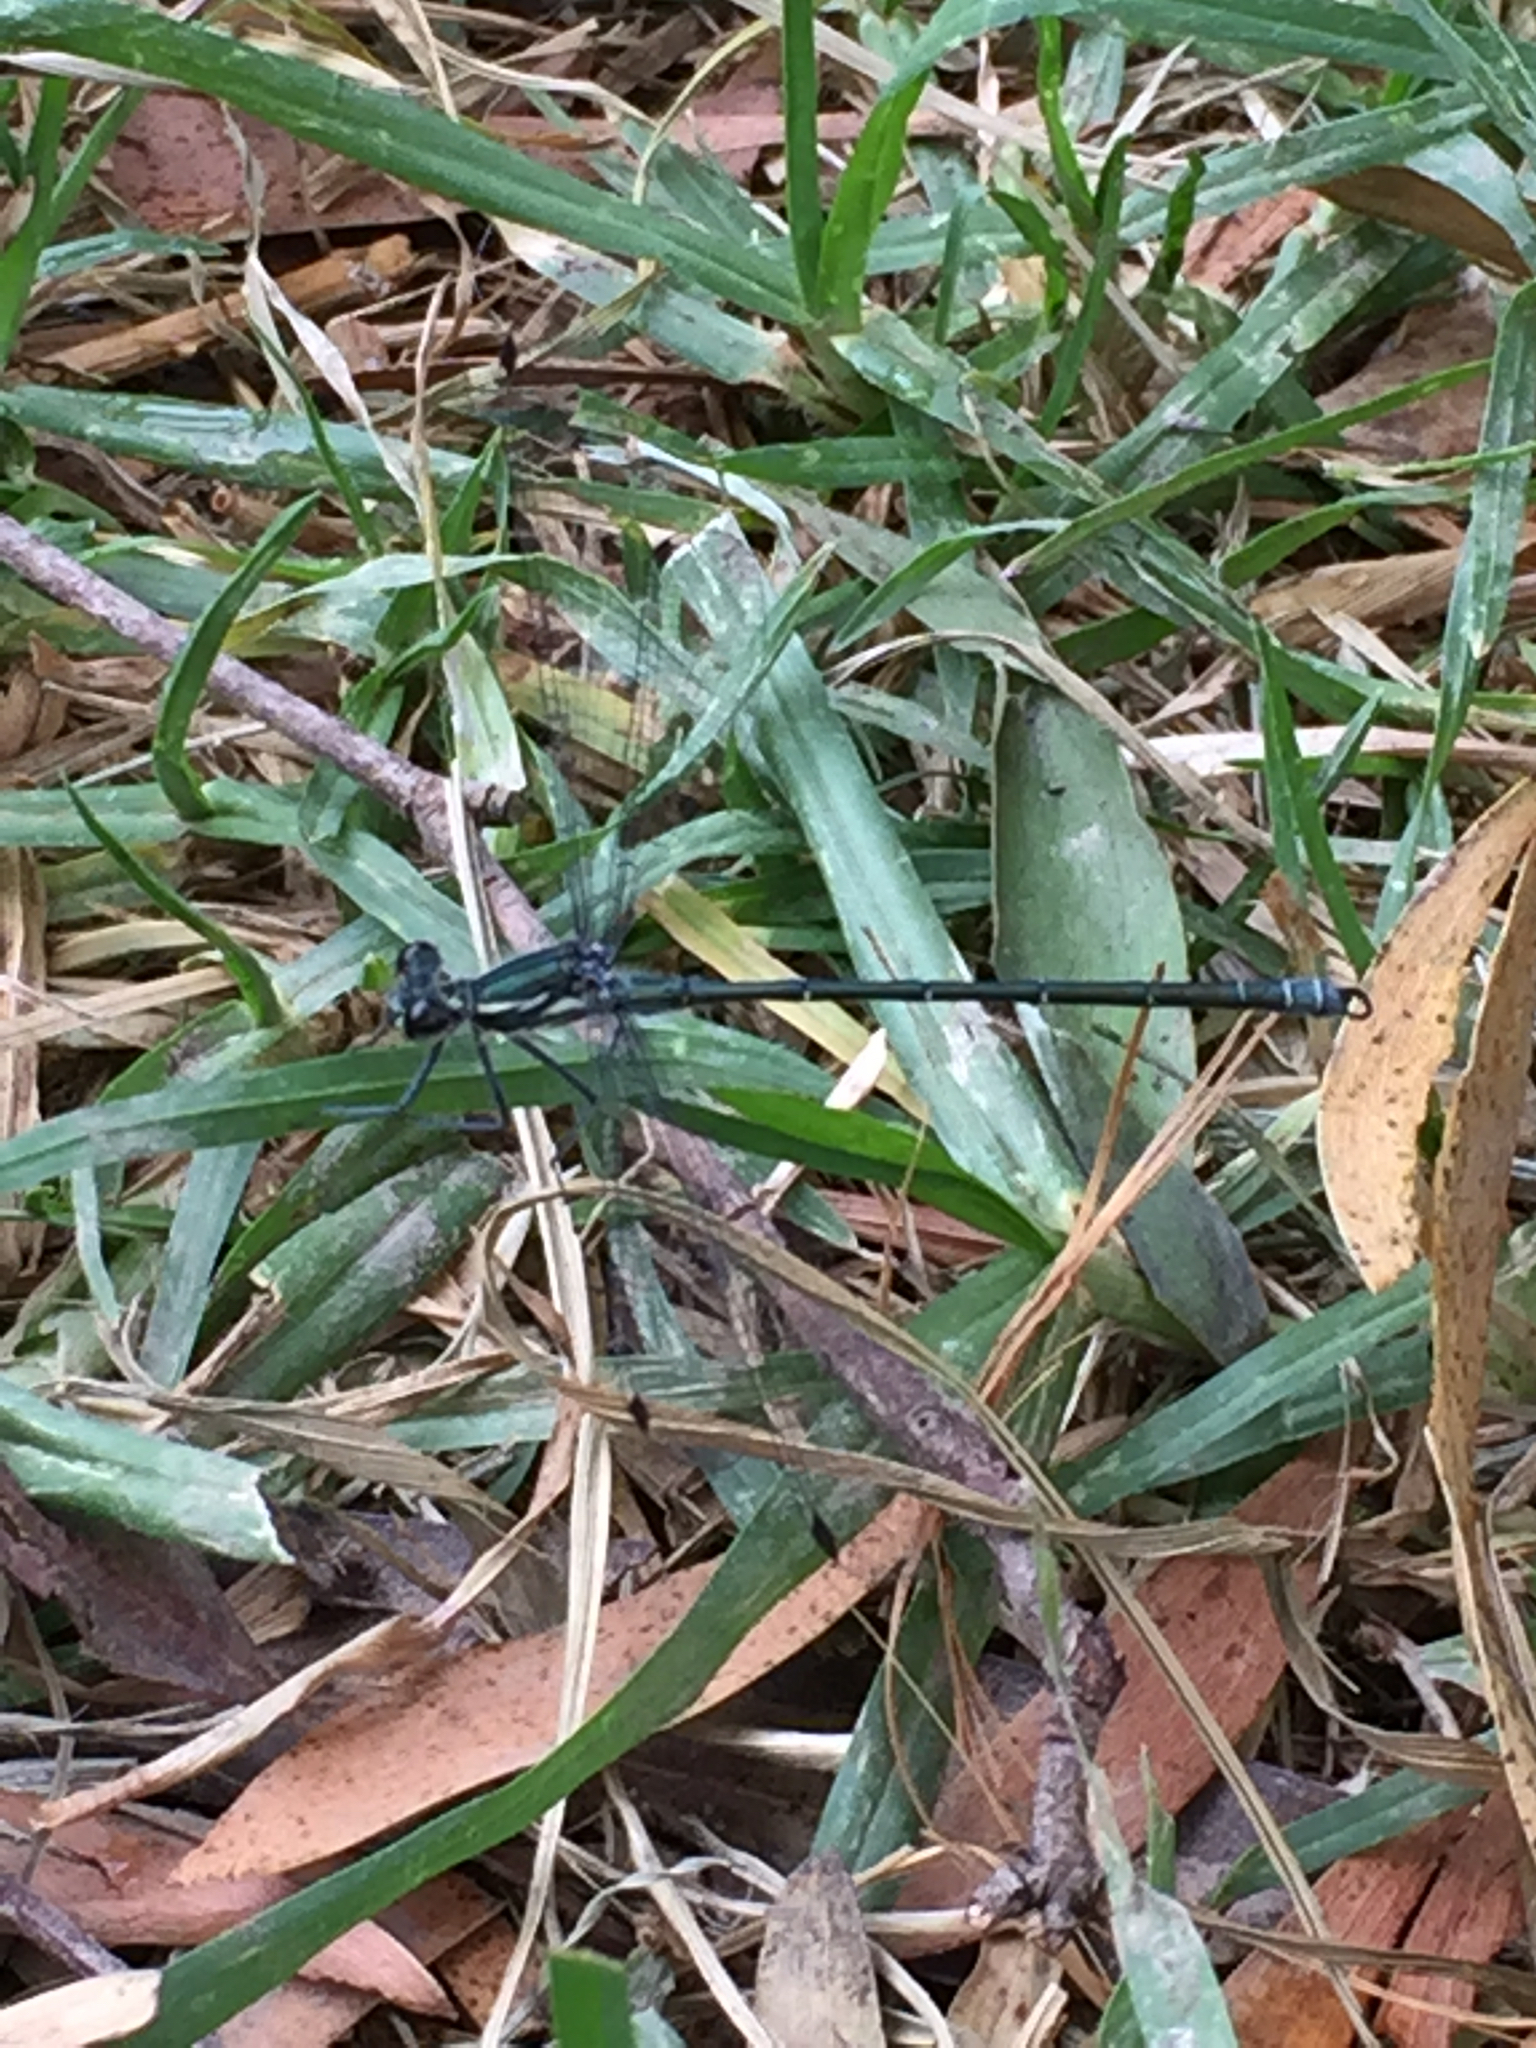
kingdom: Animalia
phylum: Arthropoda
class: Insecta
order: Odonata
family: Argiolestidae
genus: Austroargiolestes
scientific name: Austroargiolestes icteromelas
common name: Common flatwing
